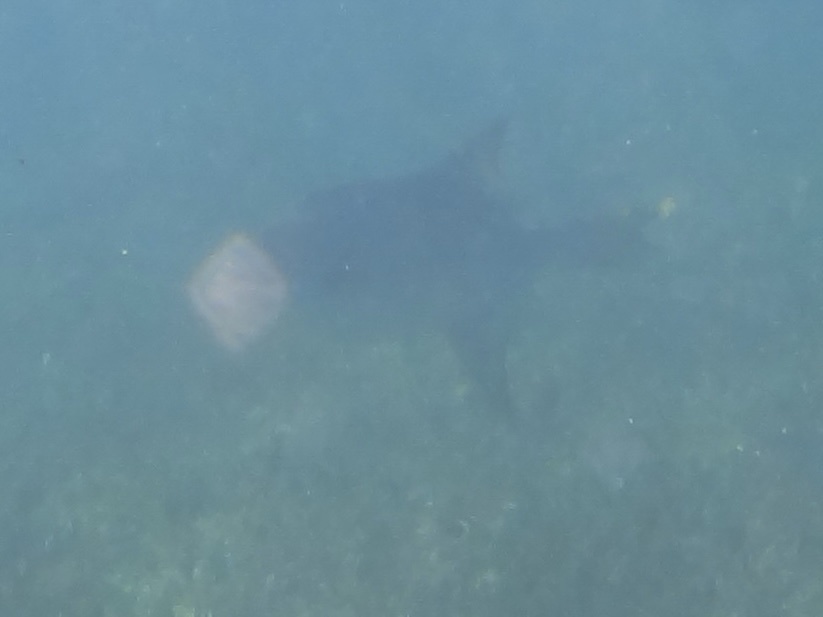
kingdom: Animalia
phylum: Chordata
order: Tetraodontiformes
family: Balistidae
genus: Canthidermis
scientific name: Canthidermis sufflamen
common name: Ocean triggerfish
